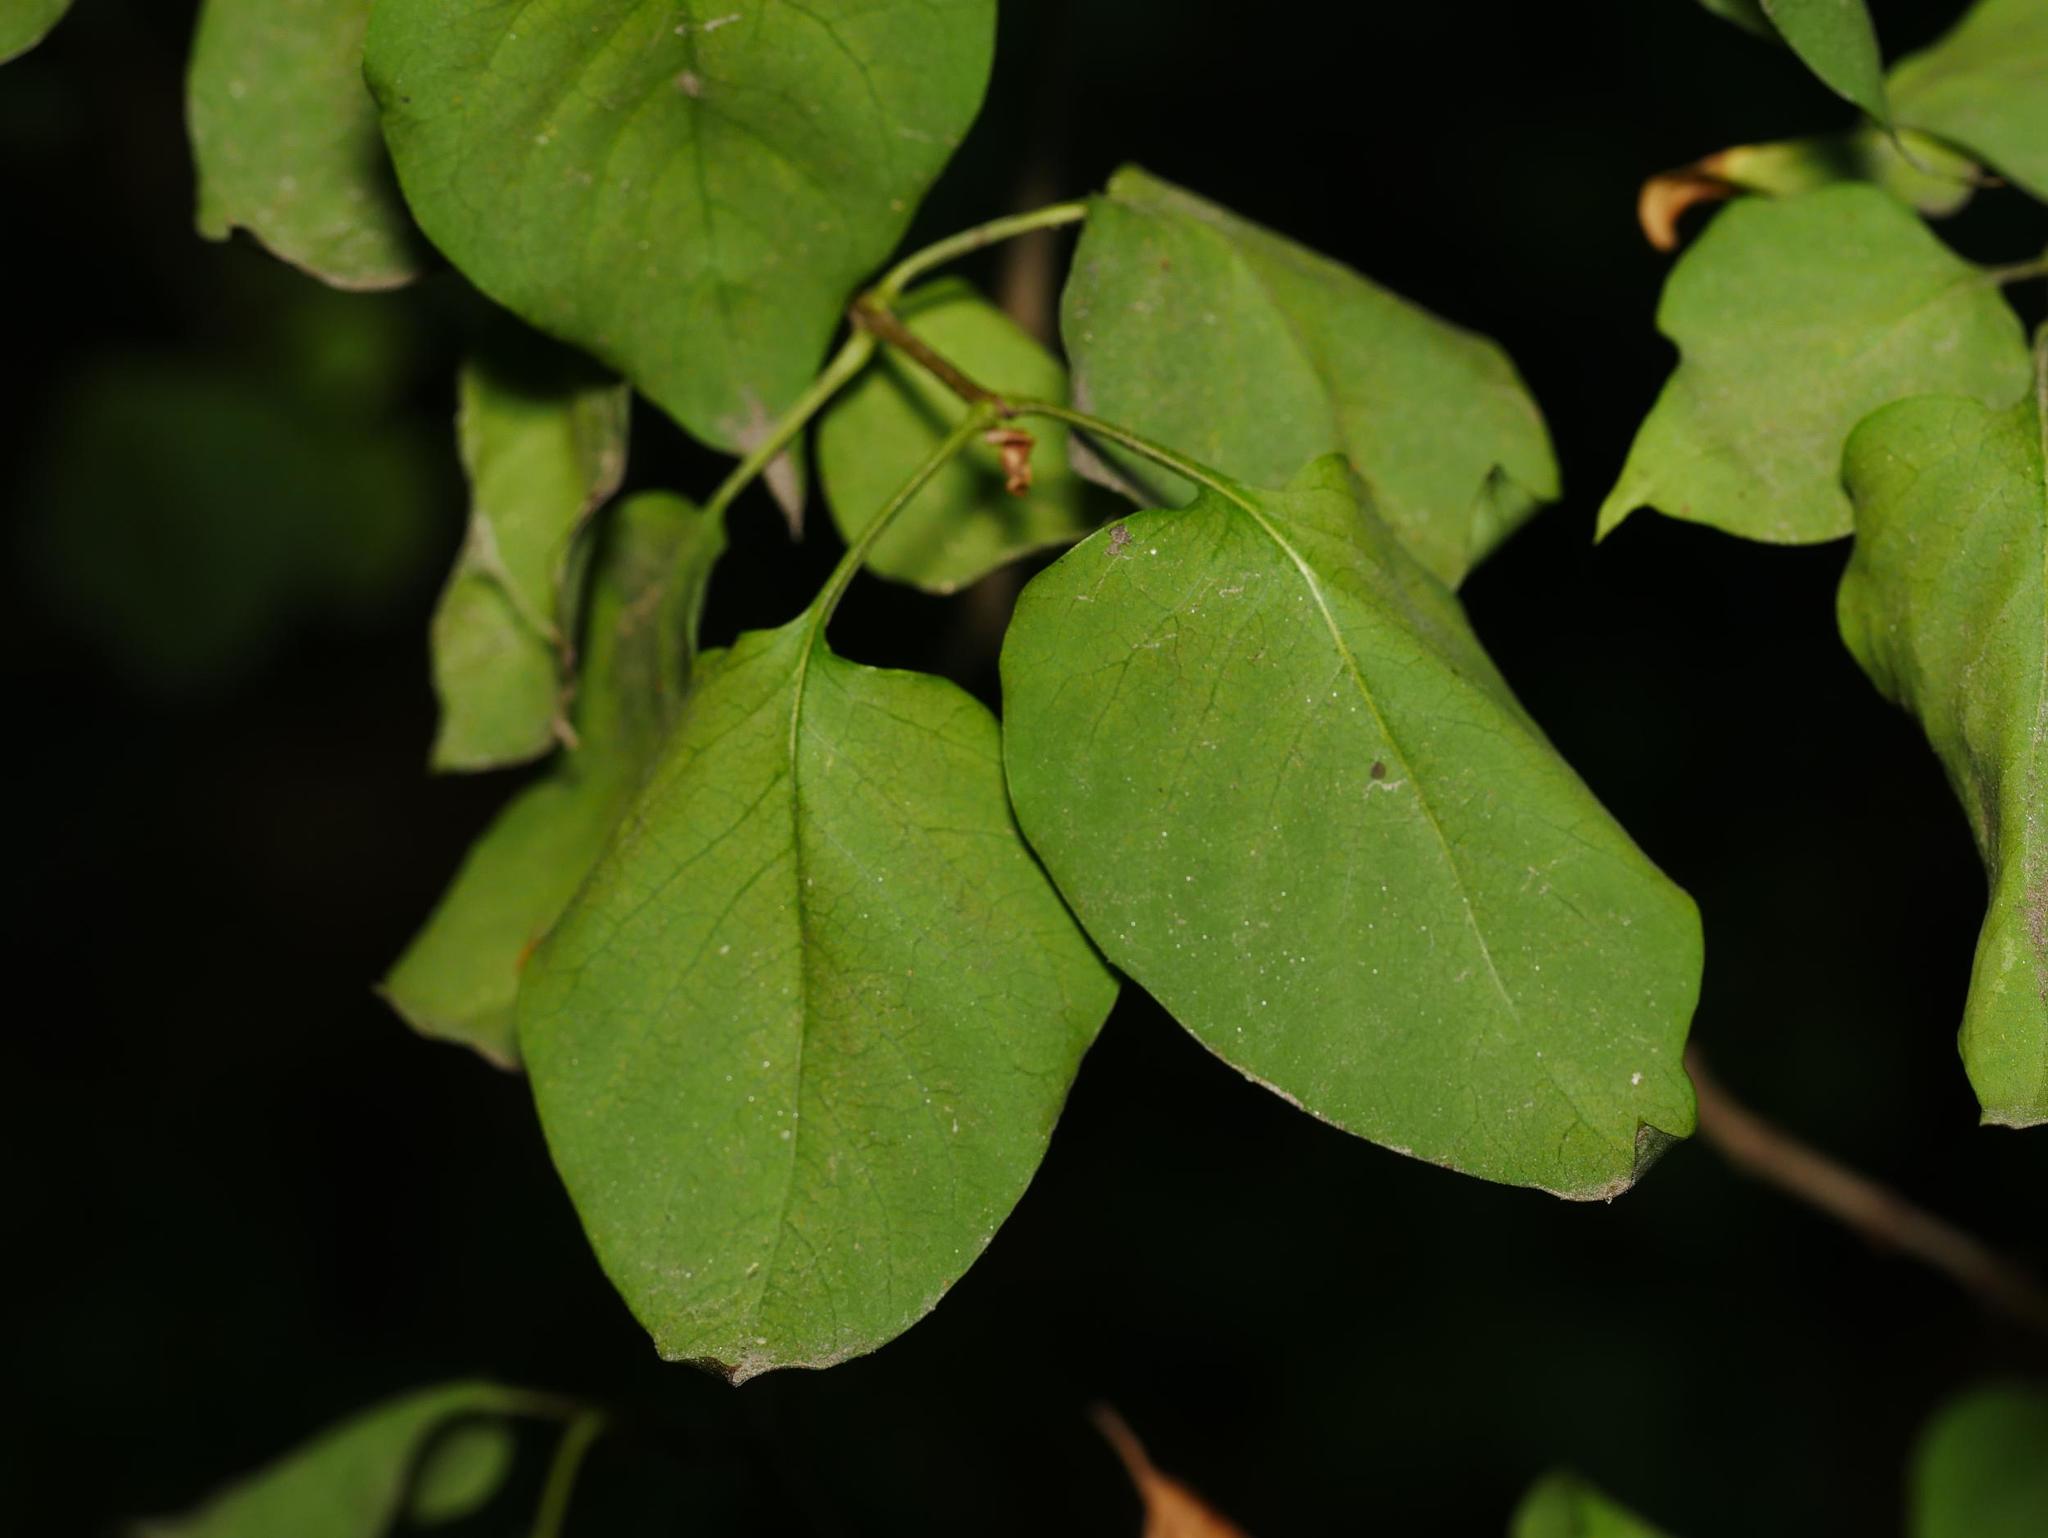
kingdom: Plantae
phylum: Tracheophyta
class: Magnoliopsida
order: Lamiales
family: Oleaceae
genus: Syringa
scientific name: Syringa vulgaris
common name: Common lilac
